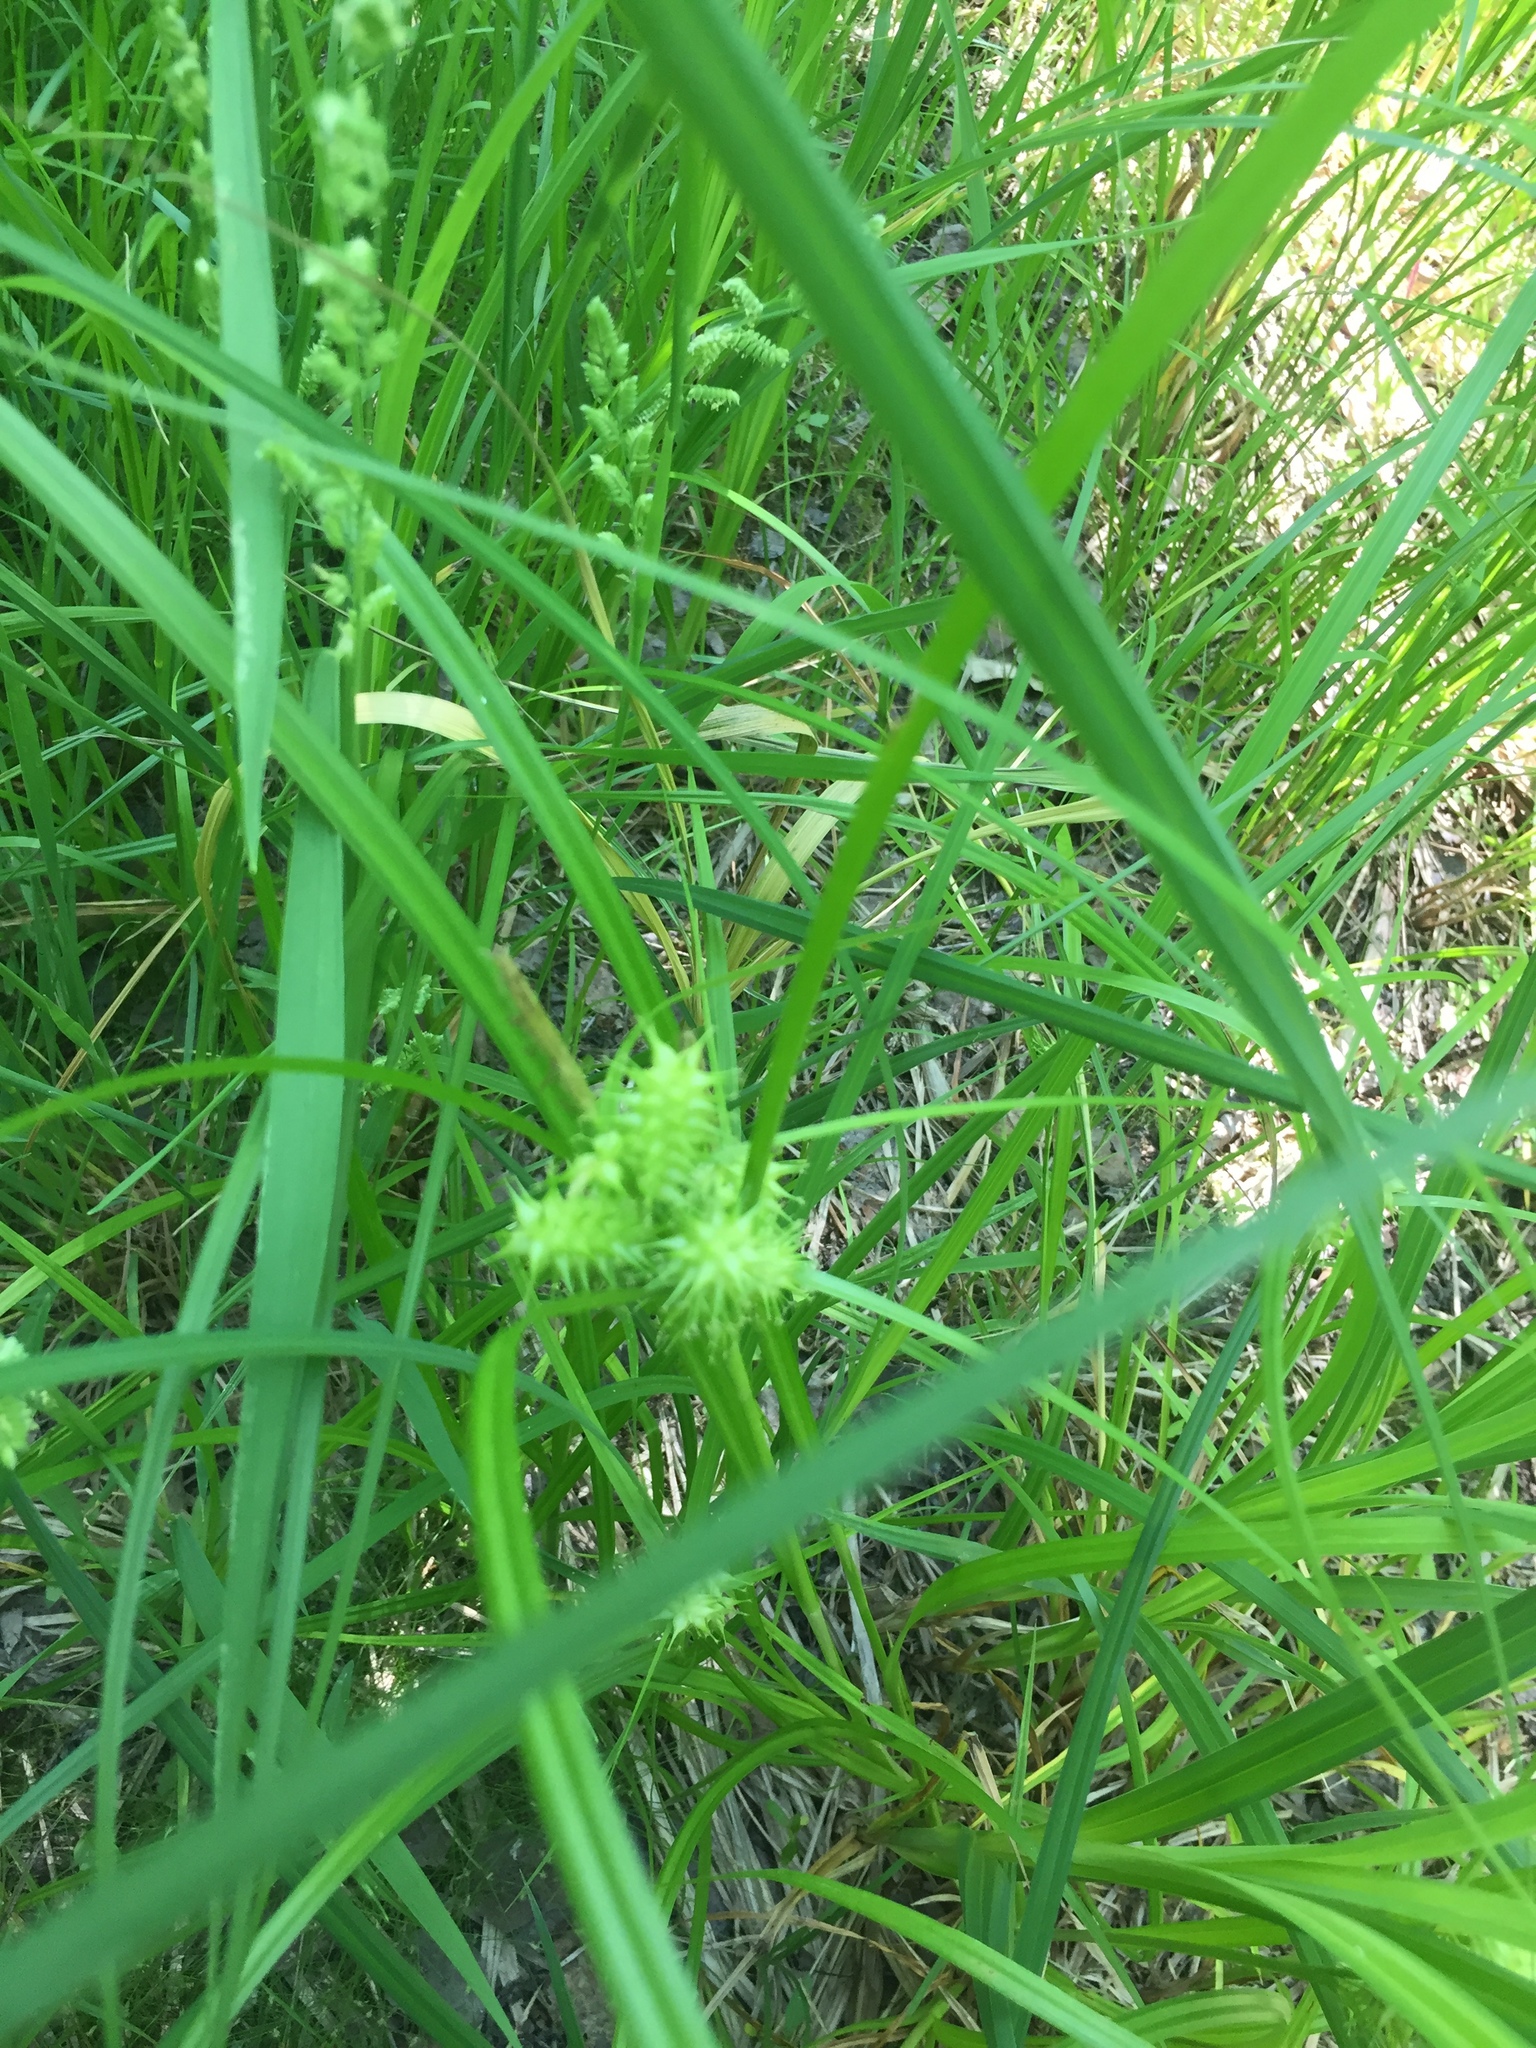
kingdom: Plantae
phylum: Tracheophyta
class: Liliopsida
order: Poales
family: Cyperaceae
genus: Carex
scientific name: Carex retrorsa
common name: Knot-sheath sedge
